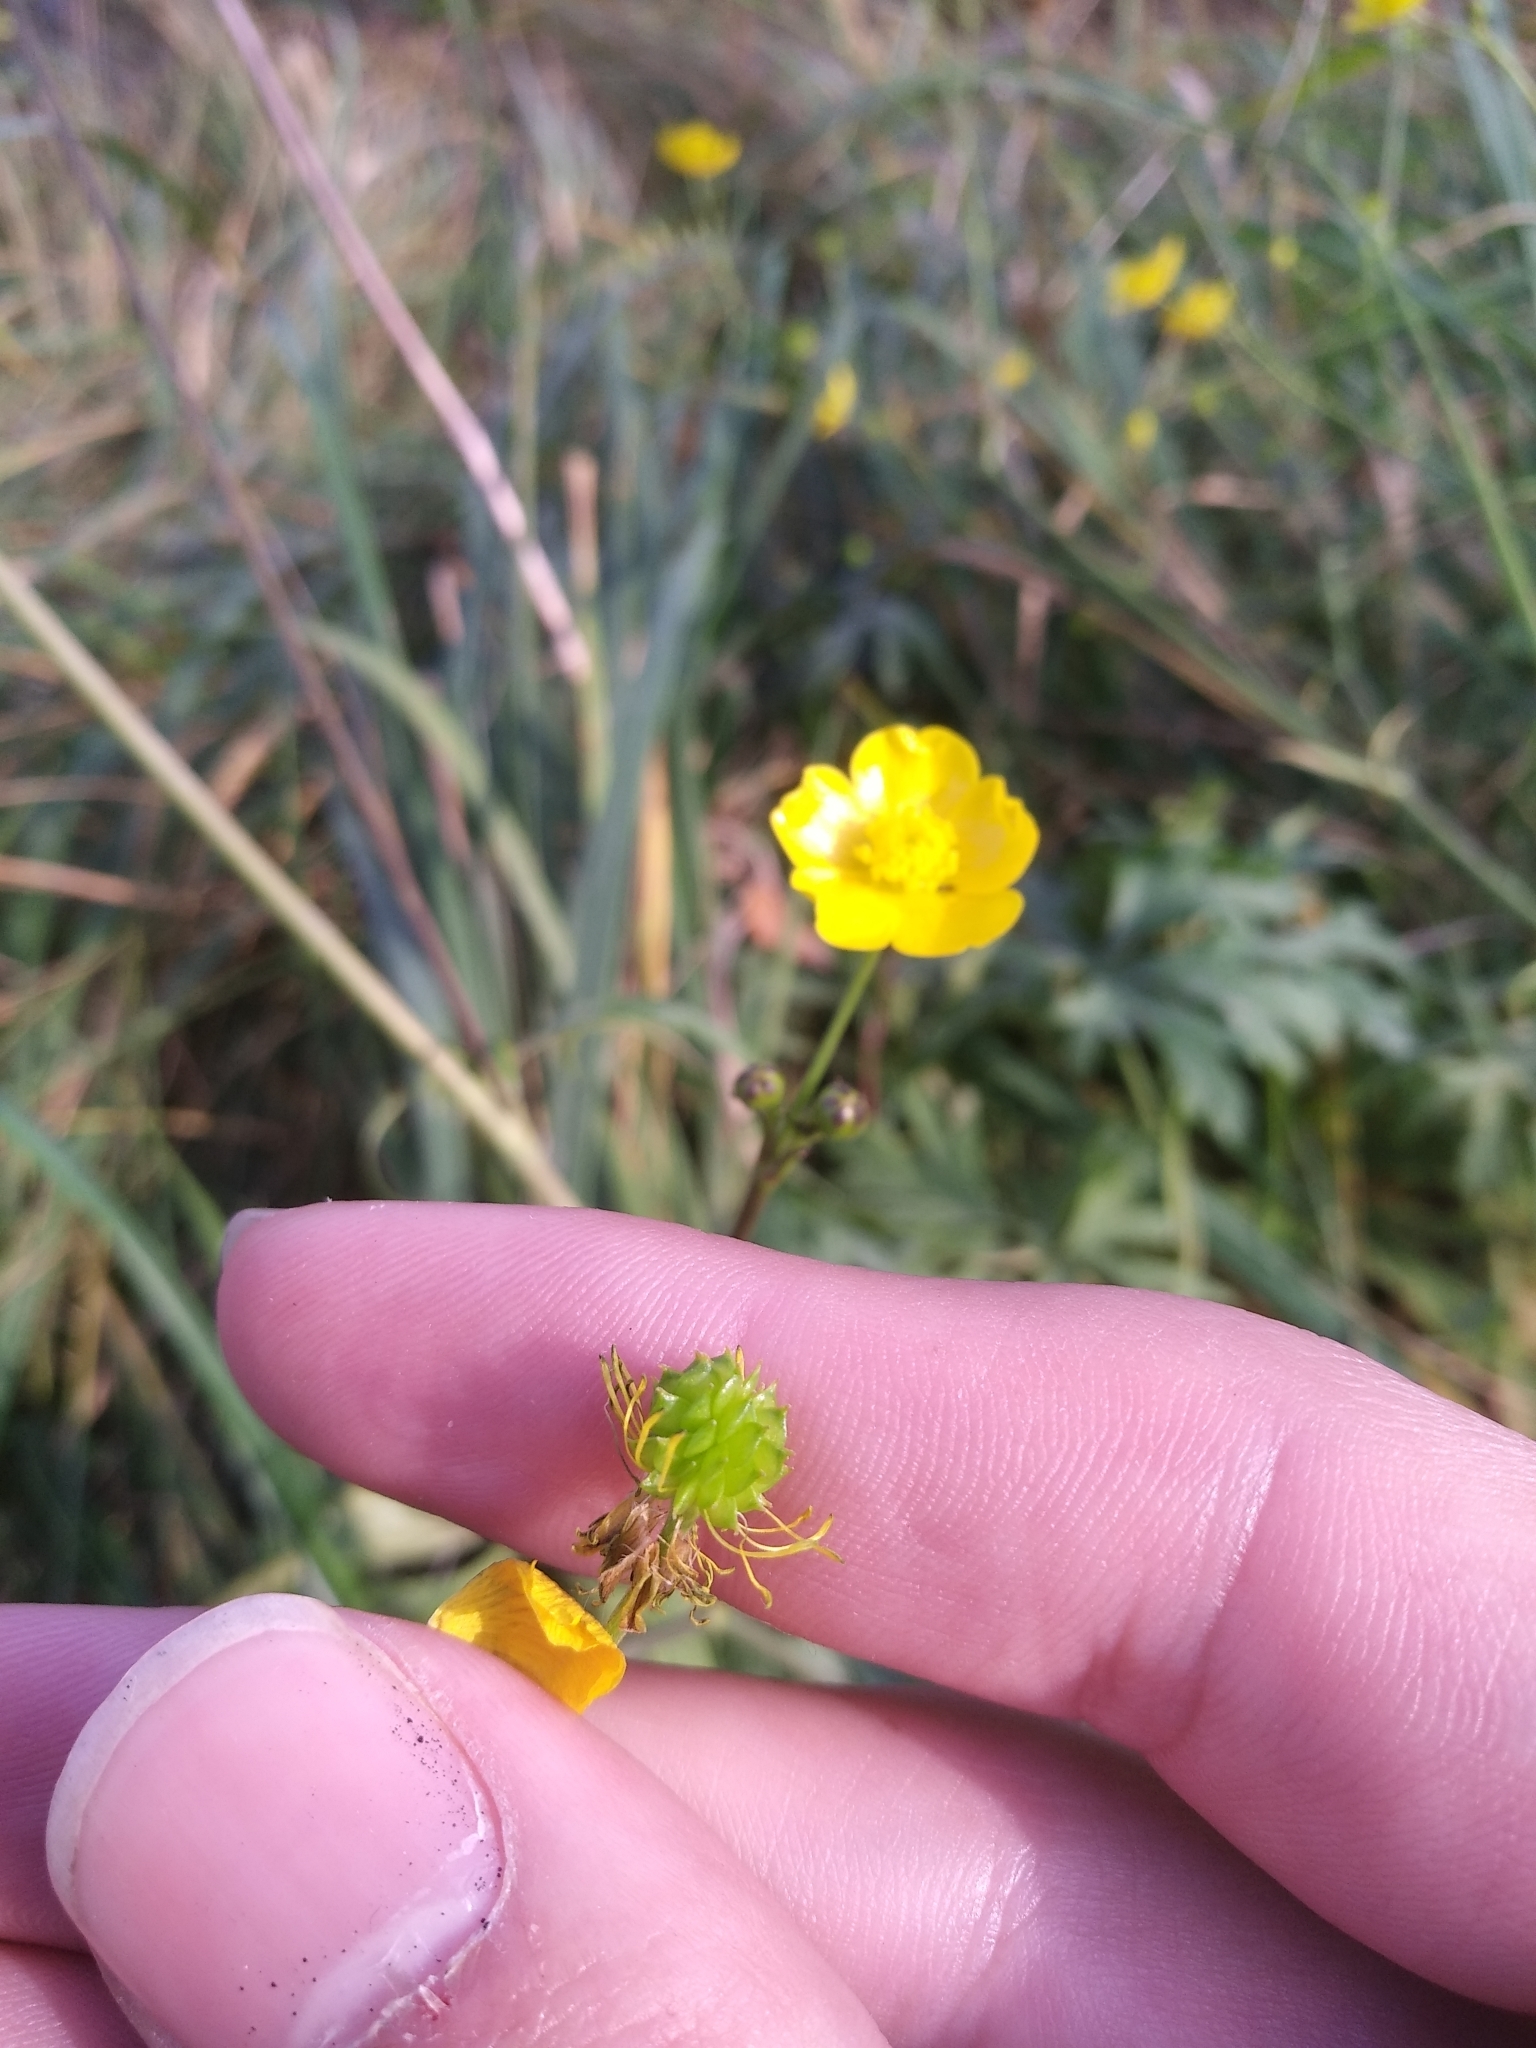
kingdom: Plantae
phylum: Tracheophyta
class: Magnoliopsida
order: Ranunculales
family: Ranunculaceae
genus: Ranunculus
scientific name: Ranunculus acris
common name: Meadow buttercup
